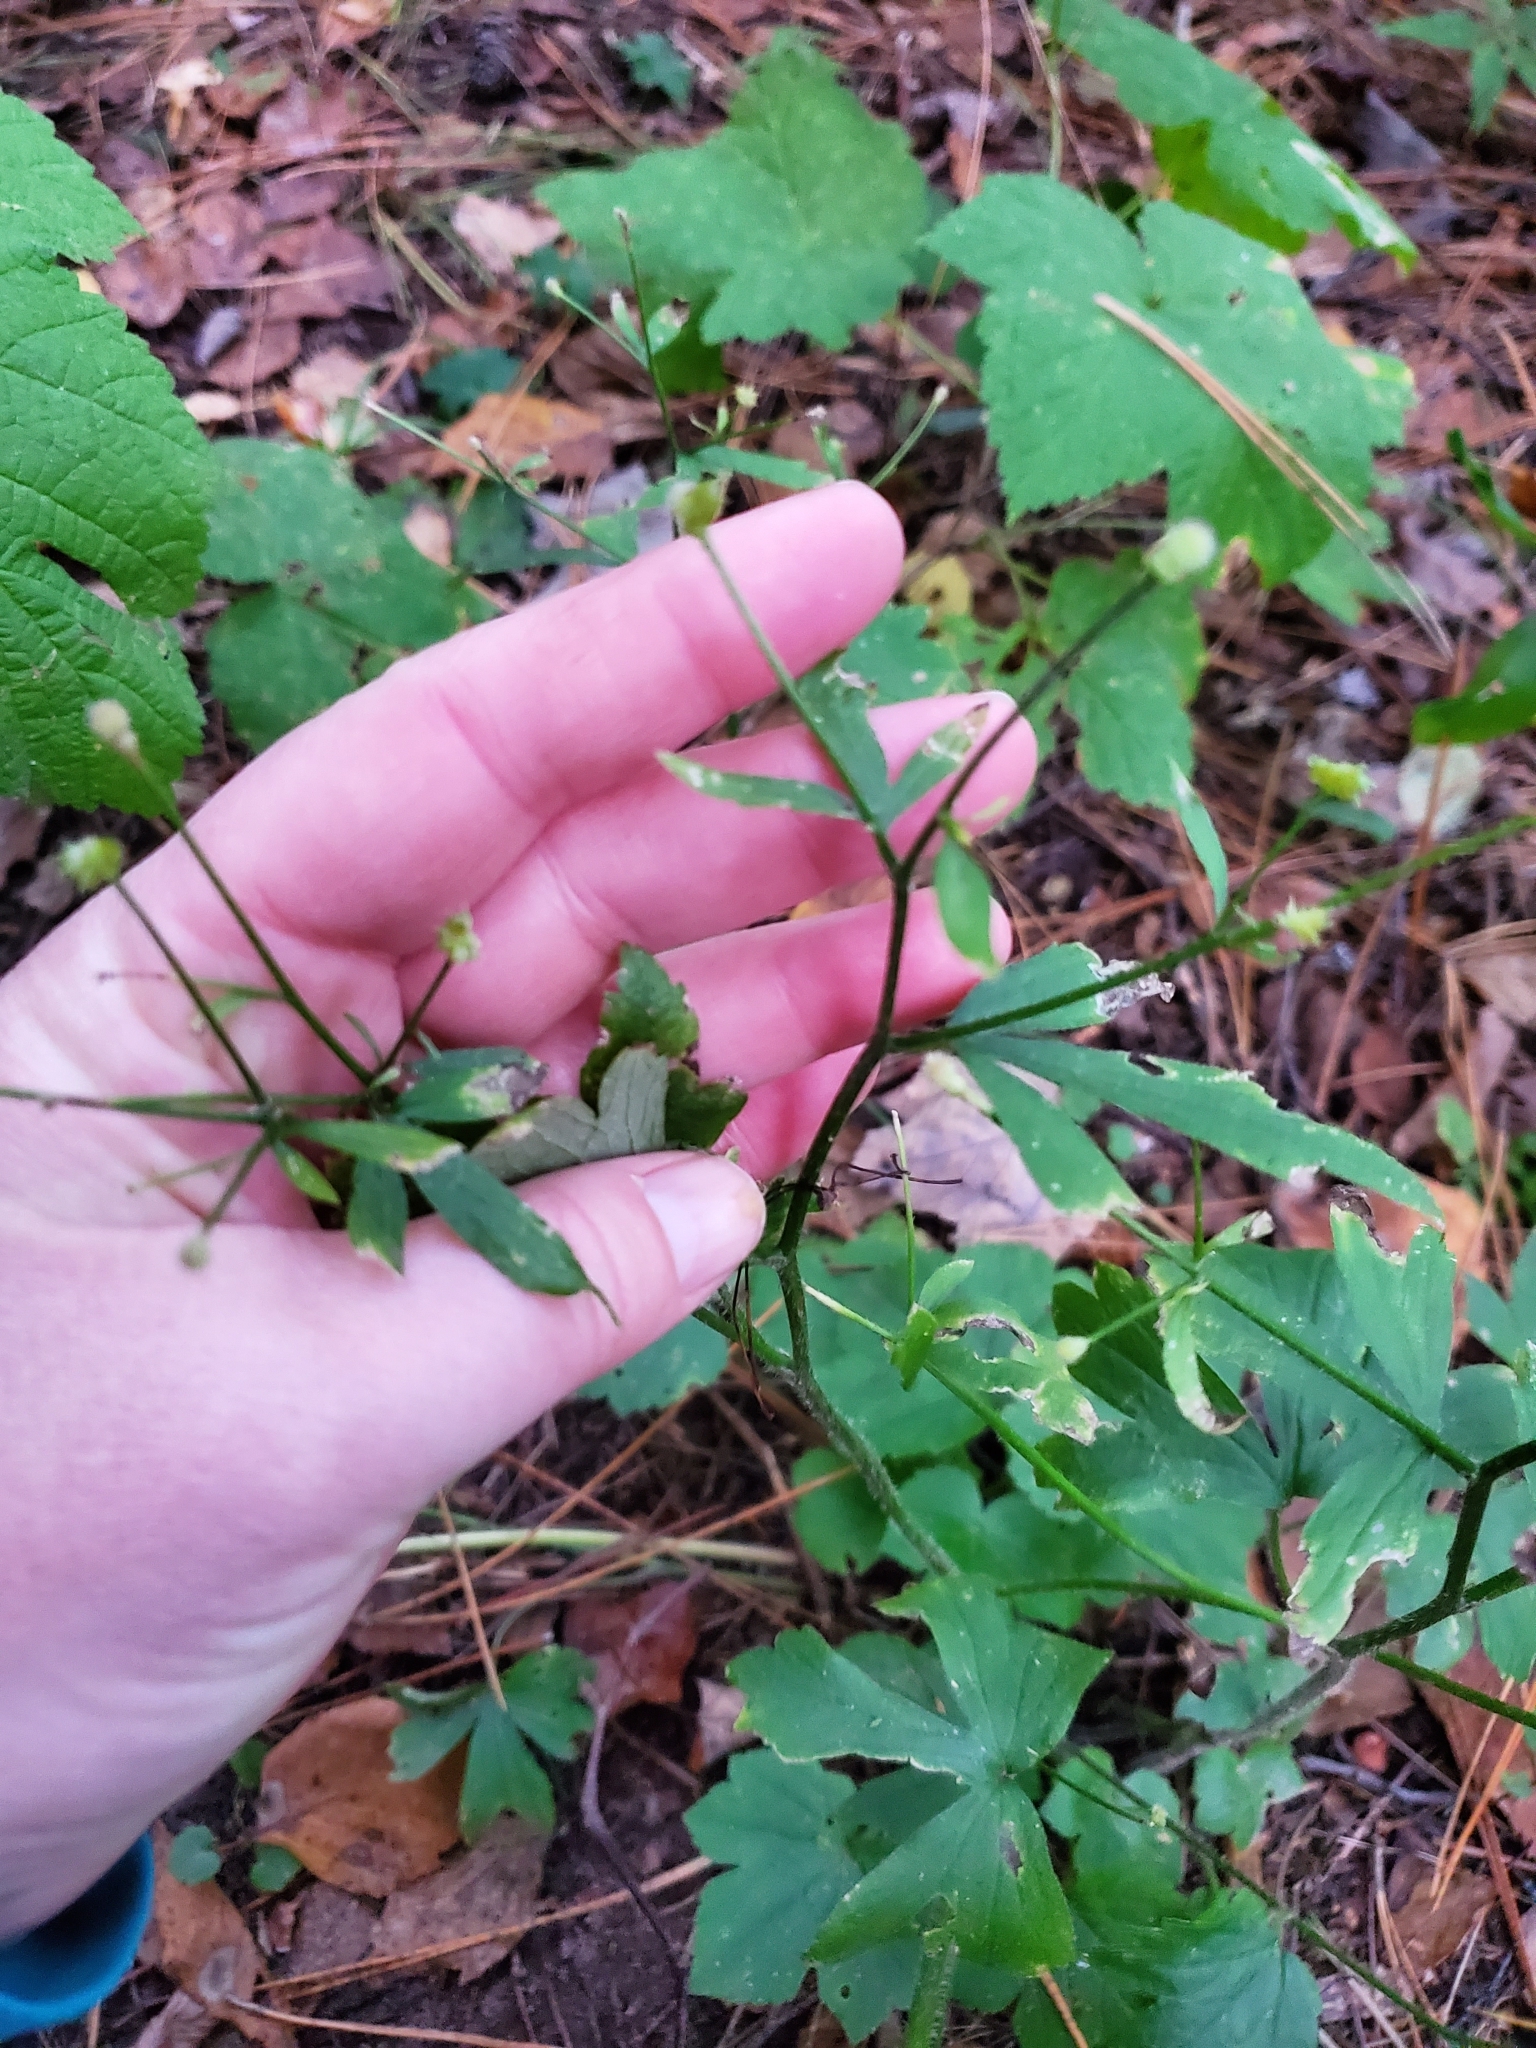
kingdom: Plantae
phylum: Tracheophyta
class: Magnoliopsida
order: Ranunculales
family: Ranunculaceae
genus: Ranunculus
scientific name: Ranunculus recurvatus
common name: Blisterwort
